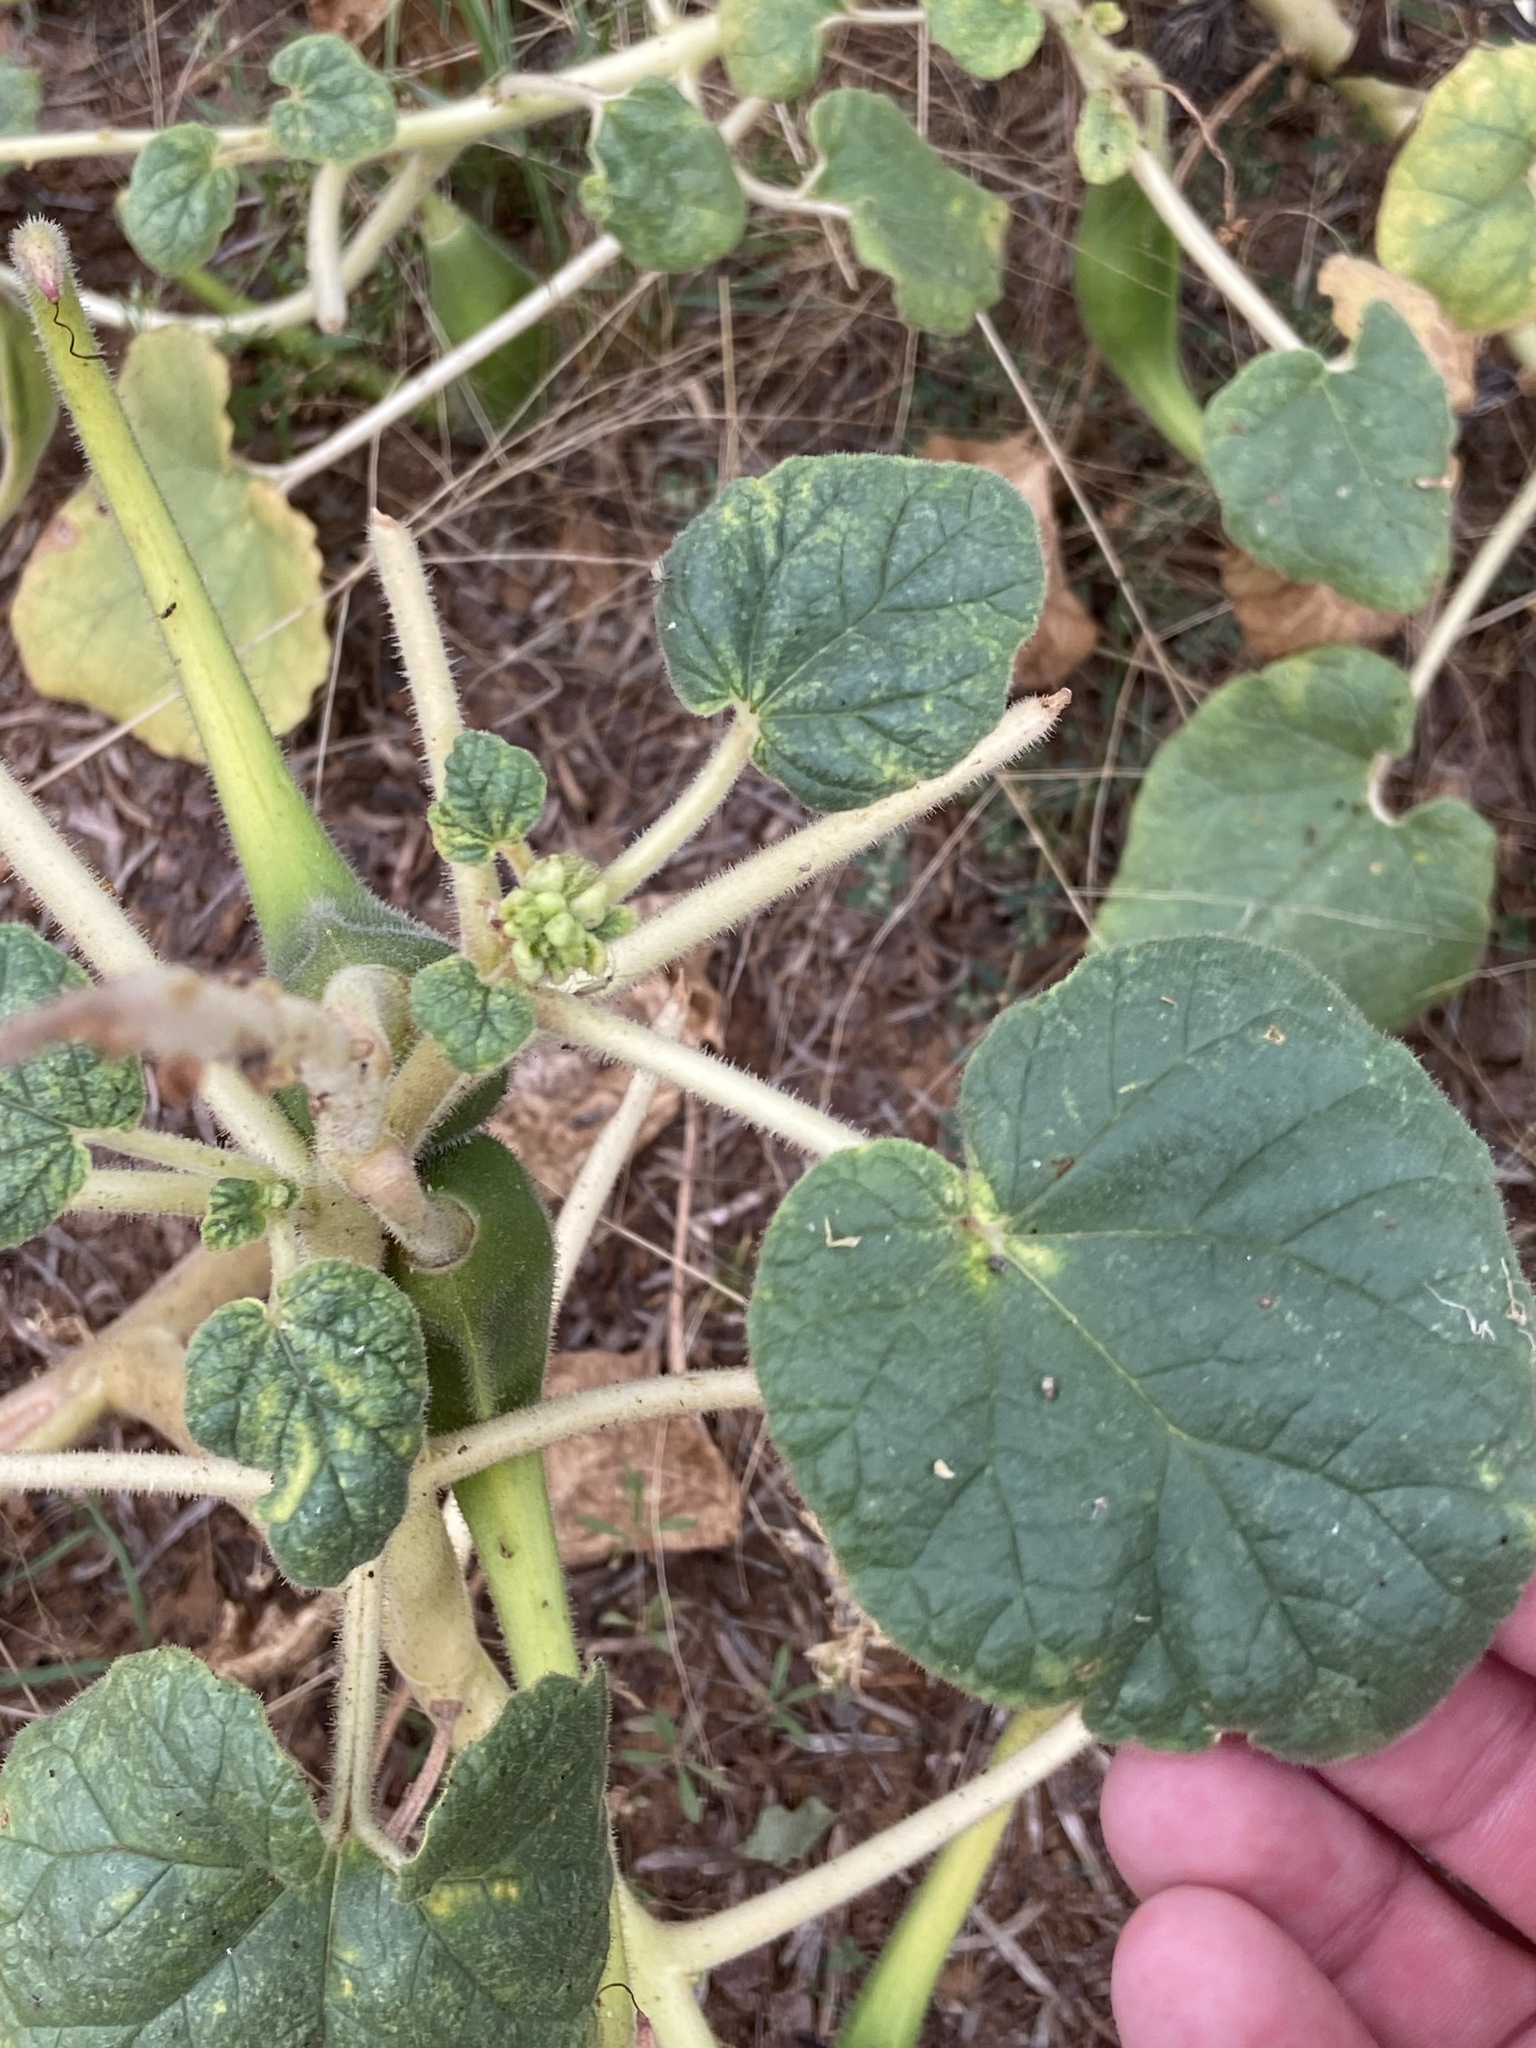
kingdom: Plantae
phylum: Tracheophyta
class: Magnoliopsida
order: Lamiales
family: Martyniaceae
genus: Proboscidea
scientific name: Proboscidea louisianica
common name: Elephant tusks
